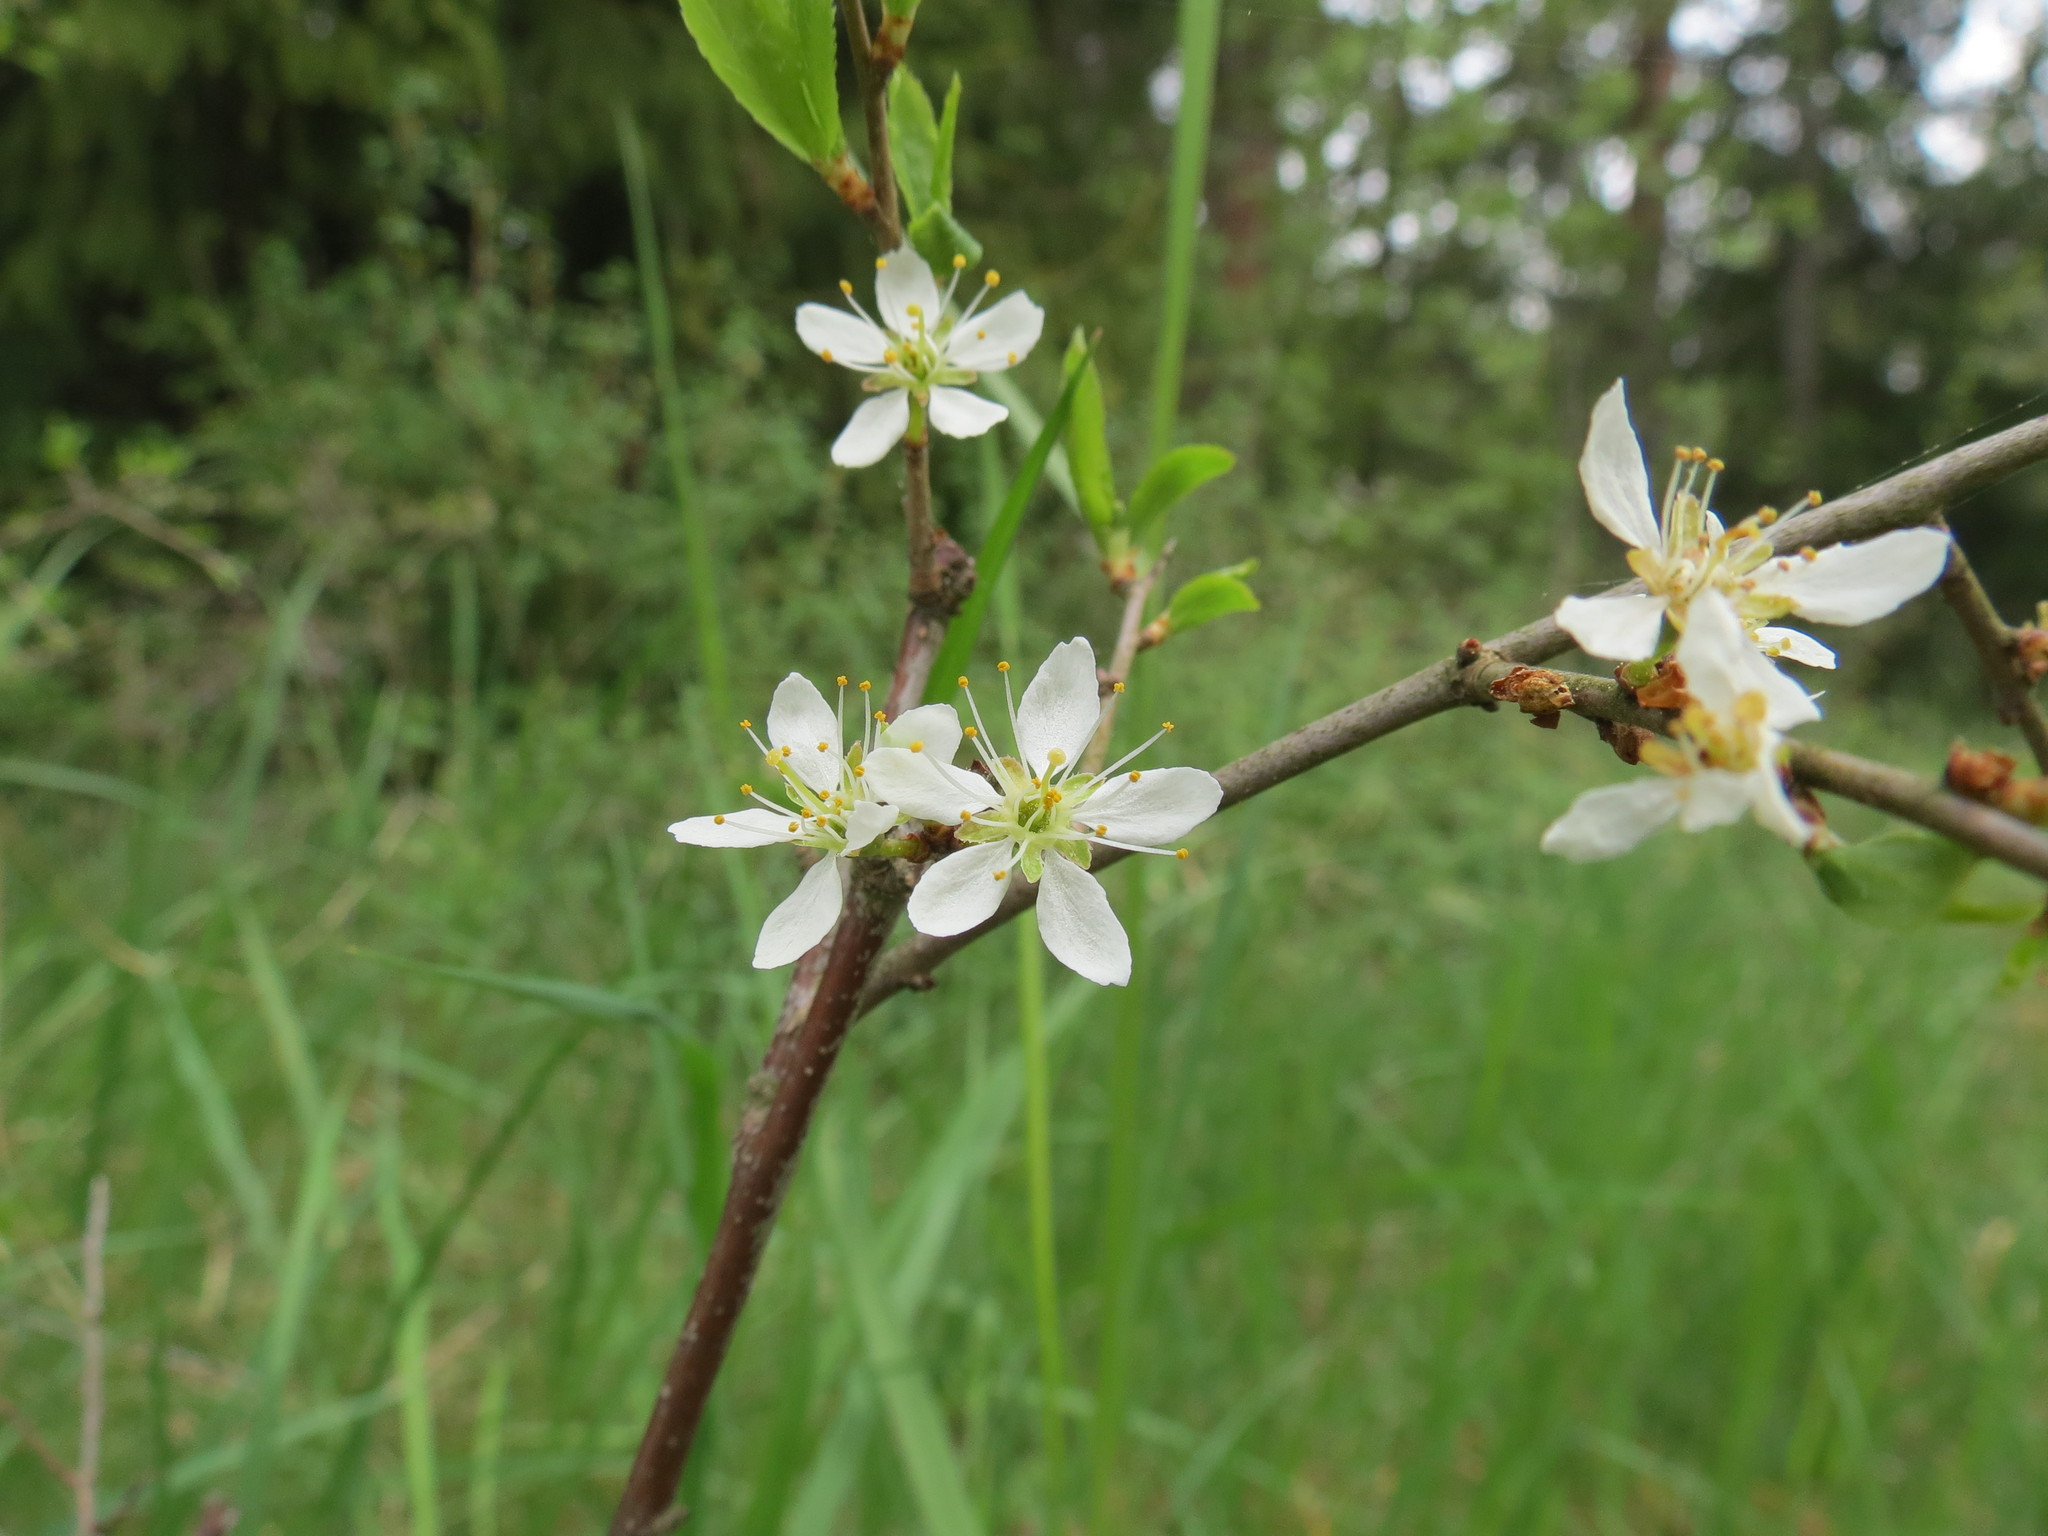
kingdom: Plantae
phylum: Tracheophyta
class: Magnoliopsida
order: Rosales
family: Rosaceae
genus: Prunus
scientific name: Prunus spinosa
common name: Blackthorn
